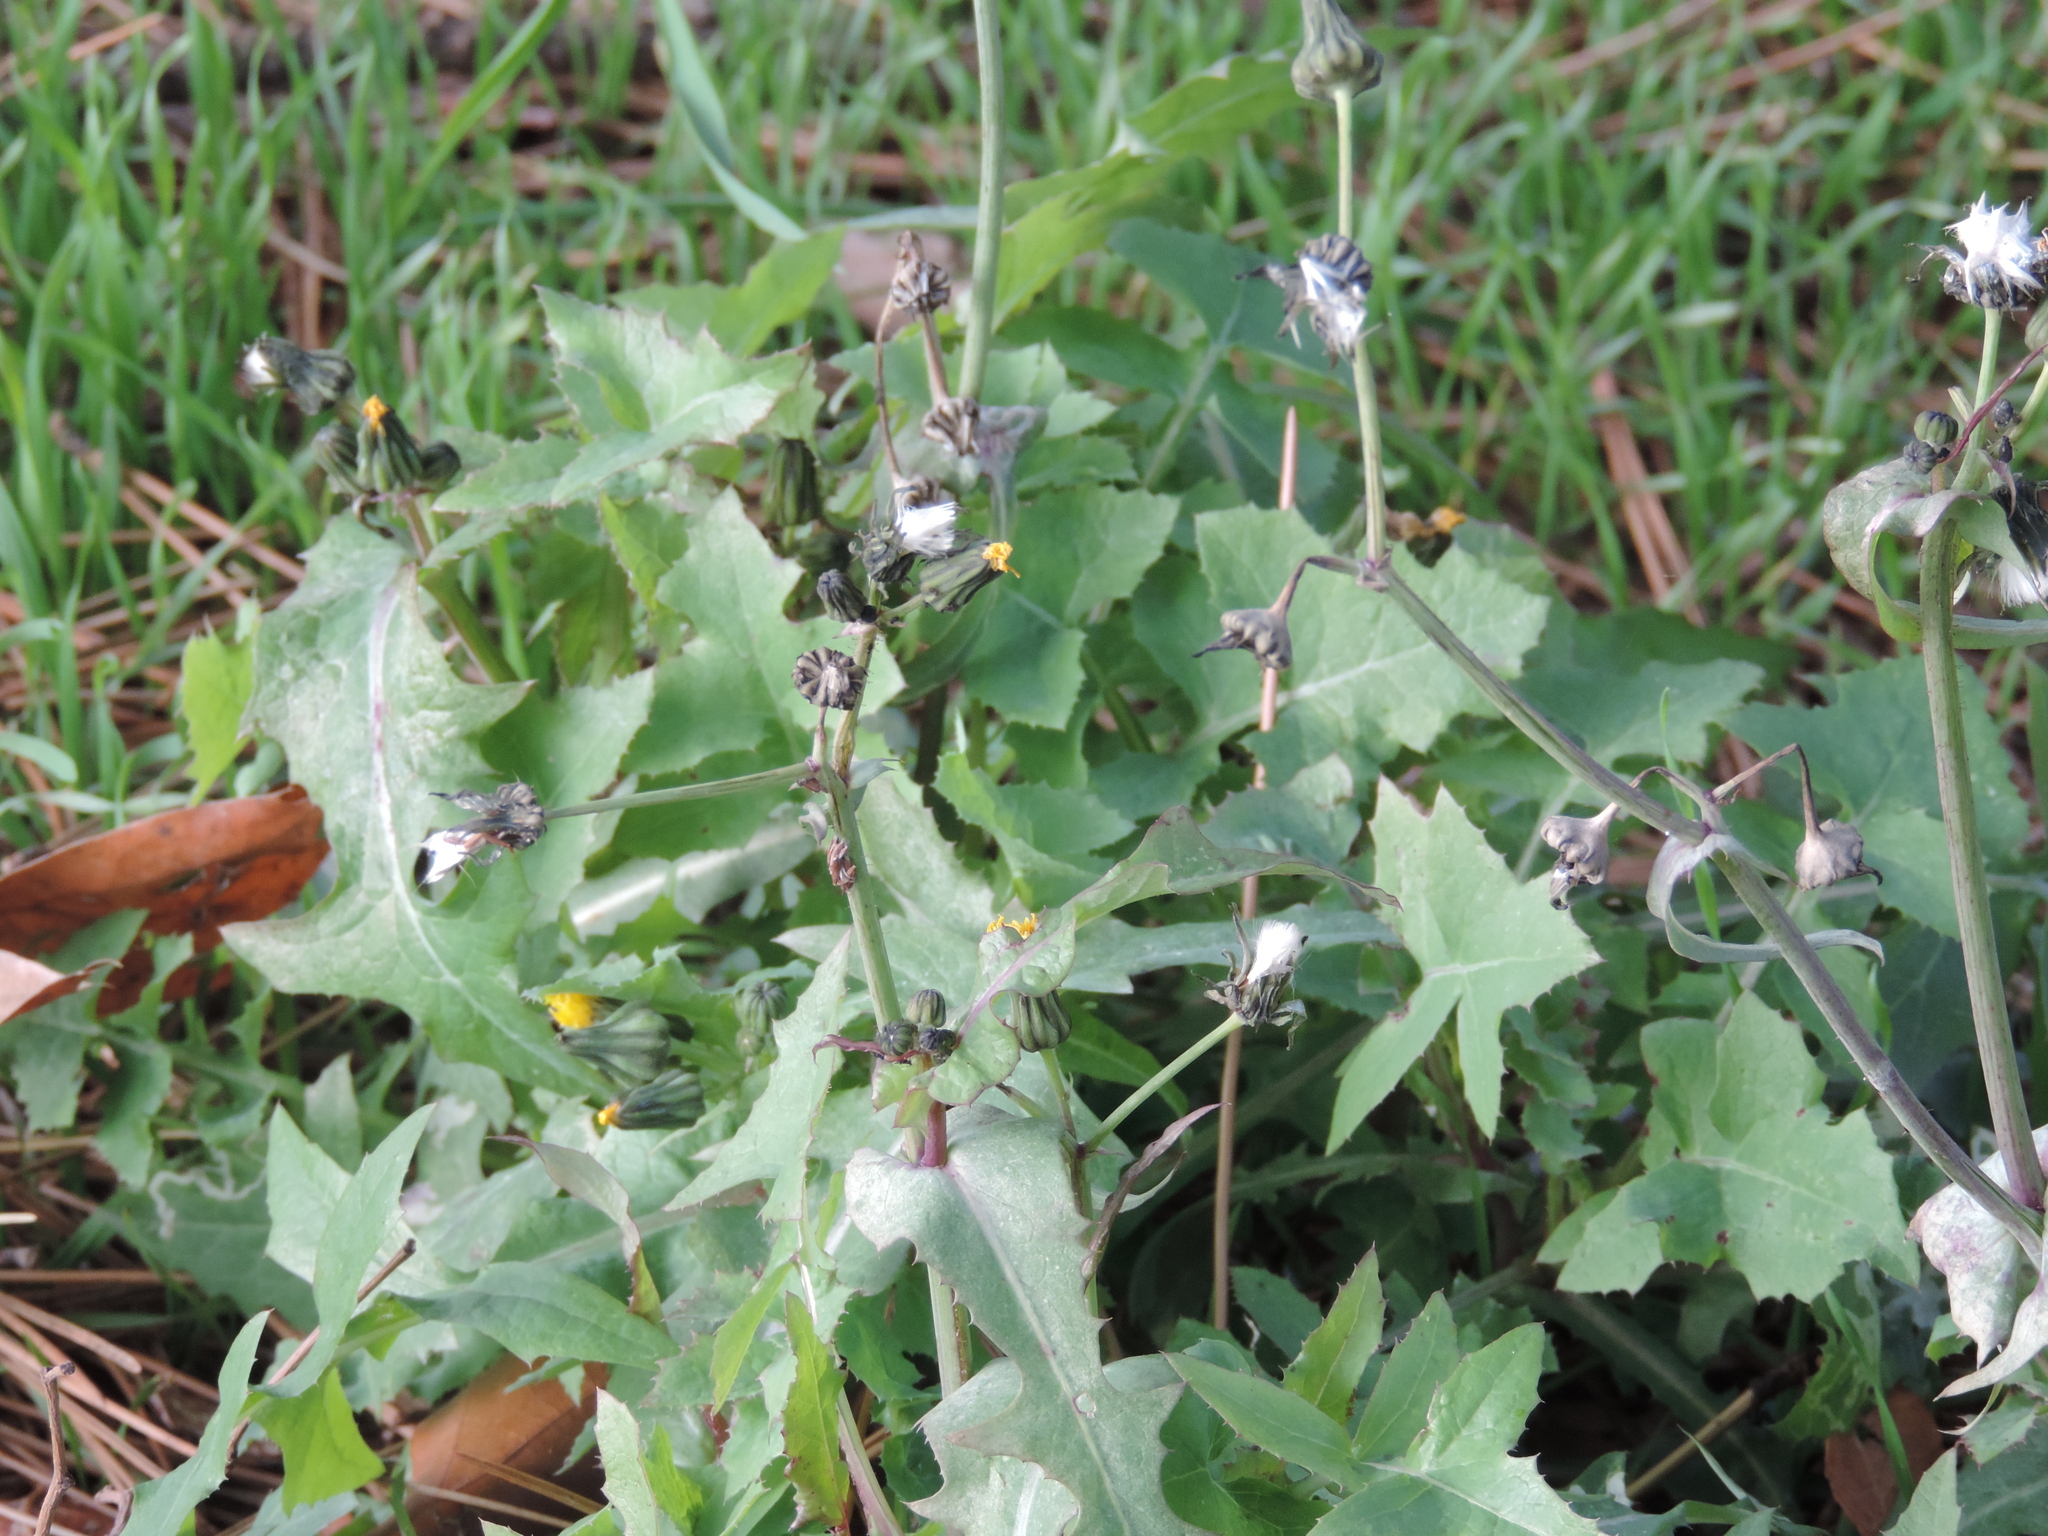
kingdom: Plantae
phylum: Tracheophyta
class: Magnoliopsida
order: Asterales
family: Asteraceae
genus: Sonchus
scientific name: Sonchus oleraceus
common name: Common sowthistle
